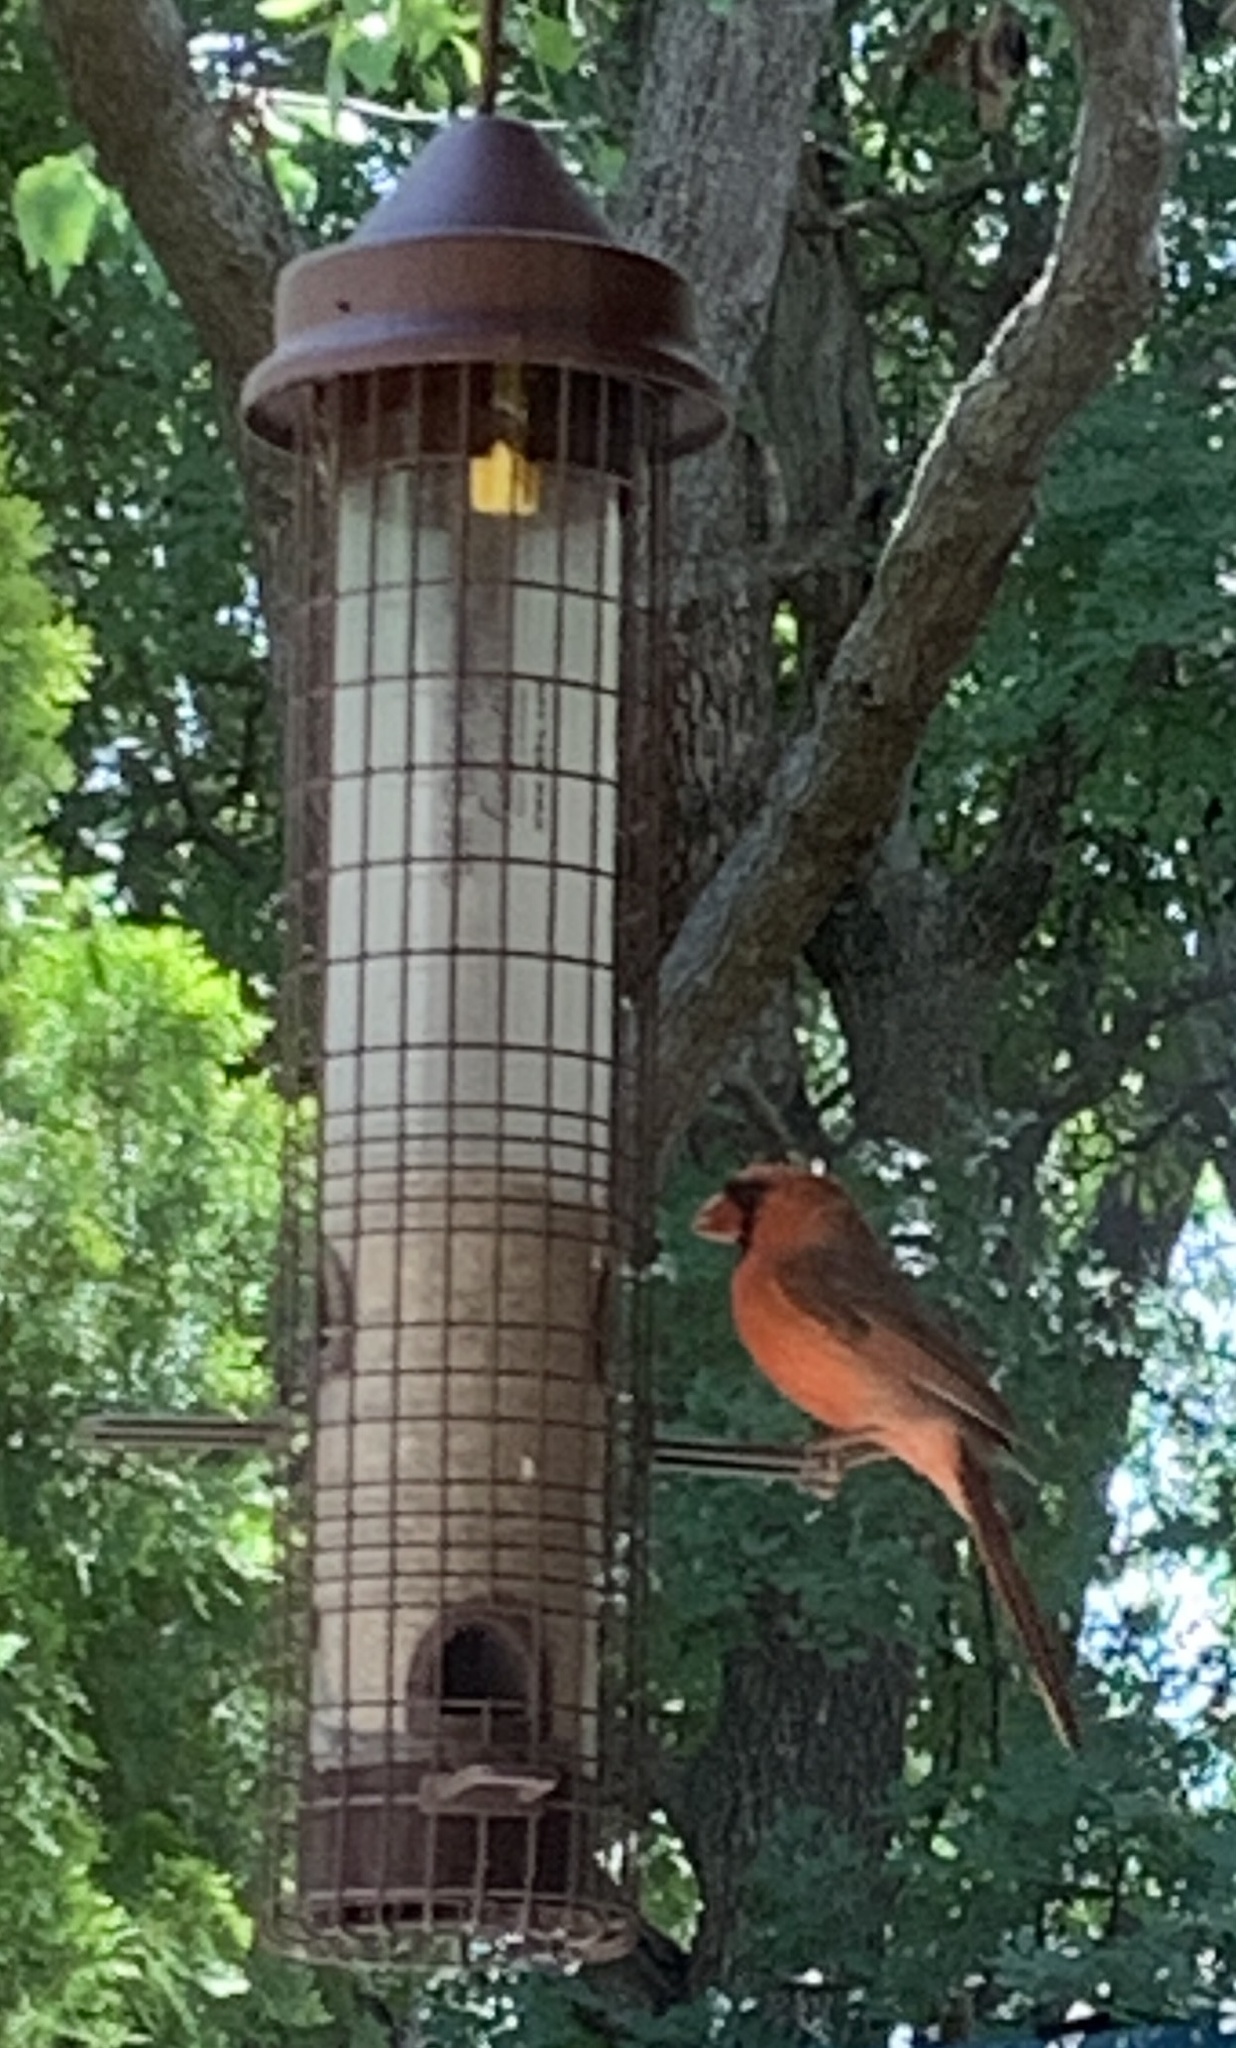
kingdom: Animalia
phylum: Chordata
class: Aves
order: Passeriformes
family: Cardinalidae
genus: Cardinalis
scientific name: Cardinalis cardinalis
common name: Northern cardinal
